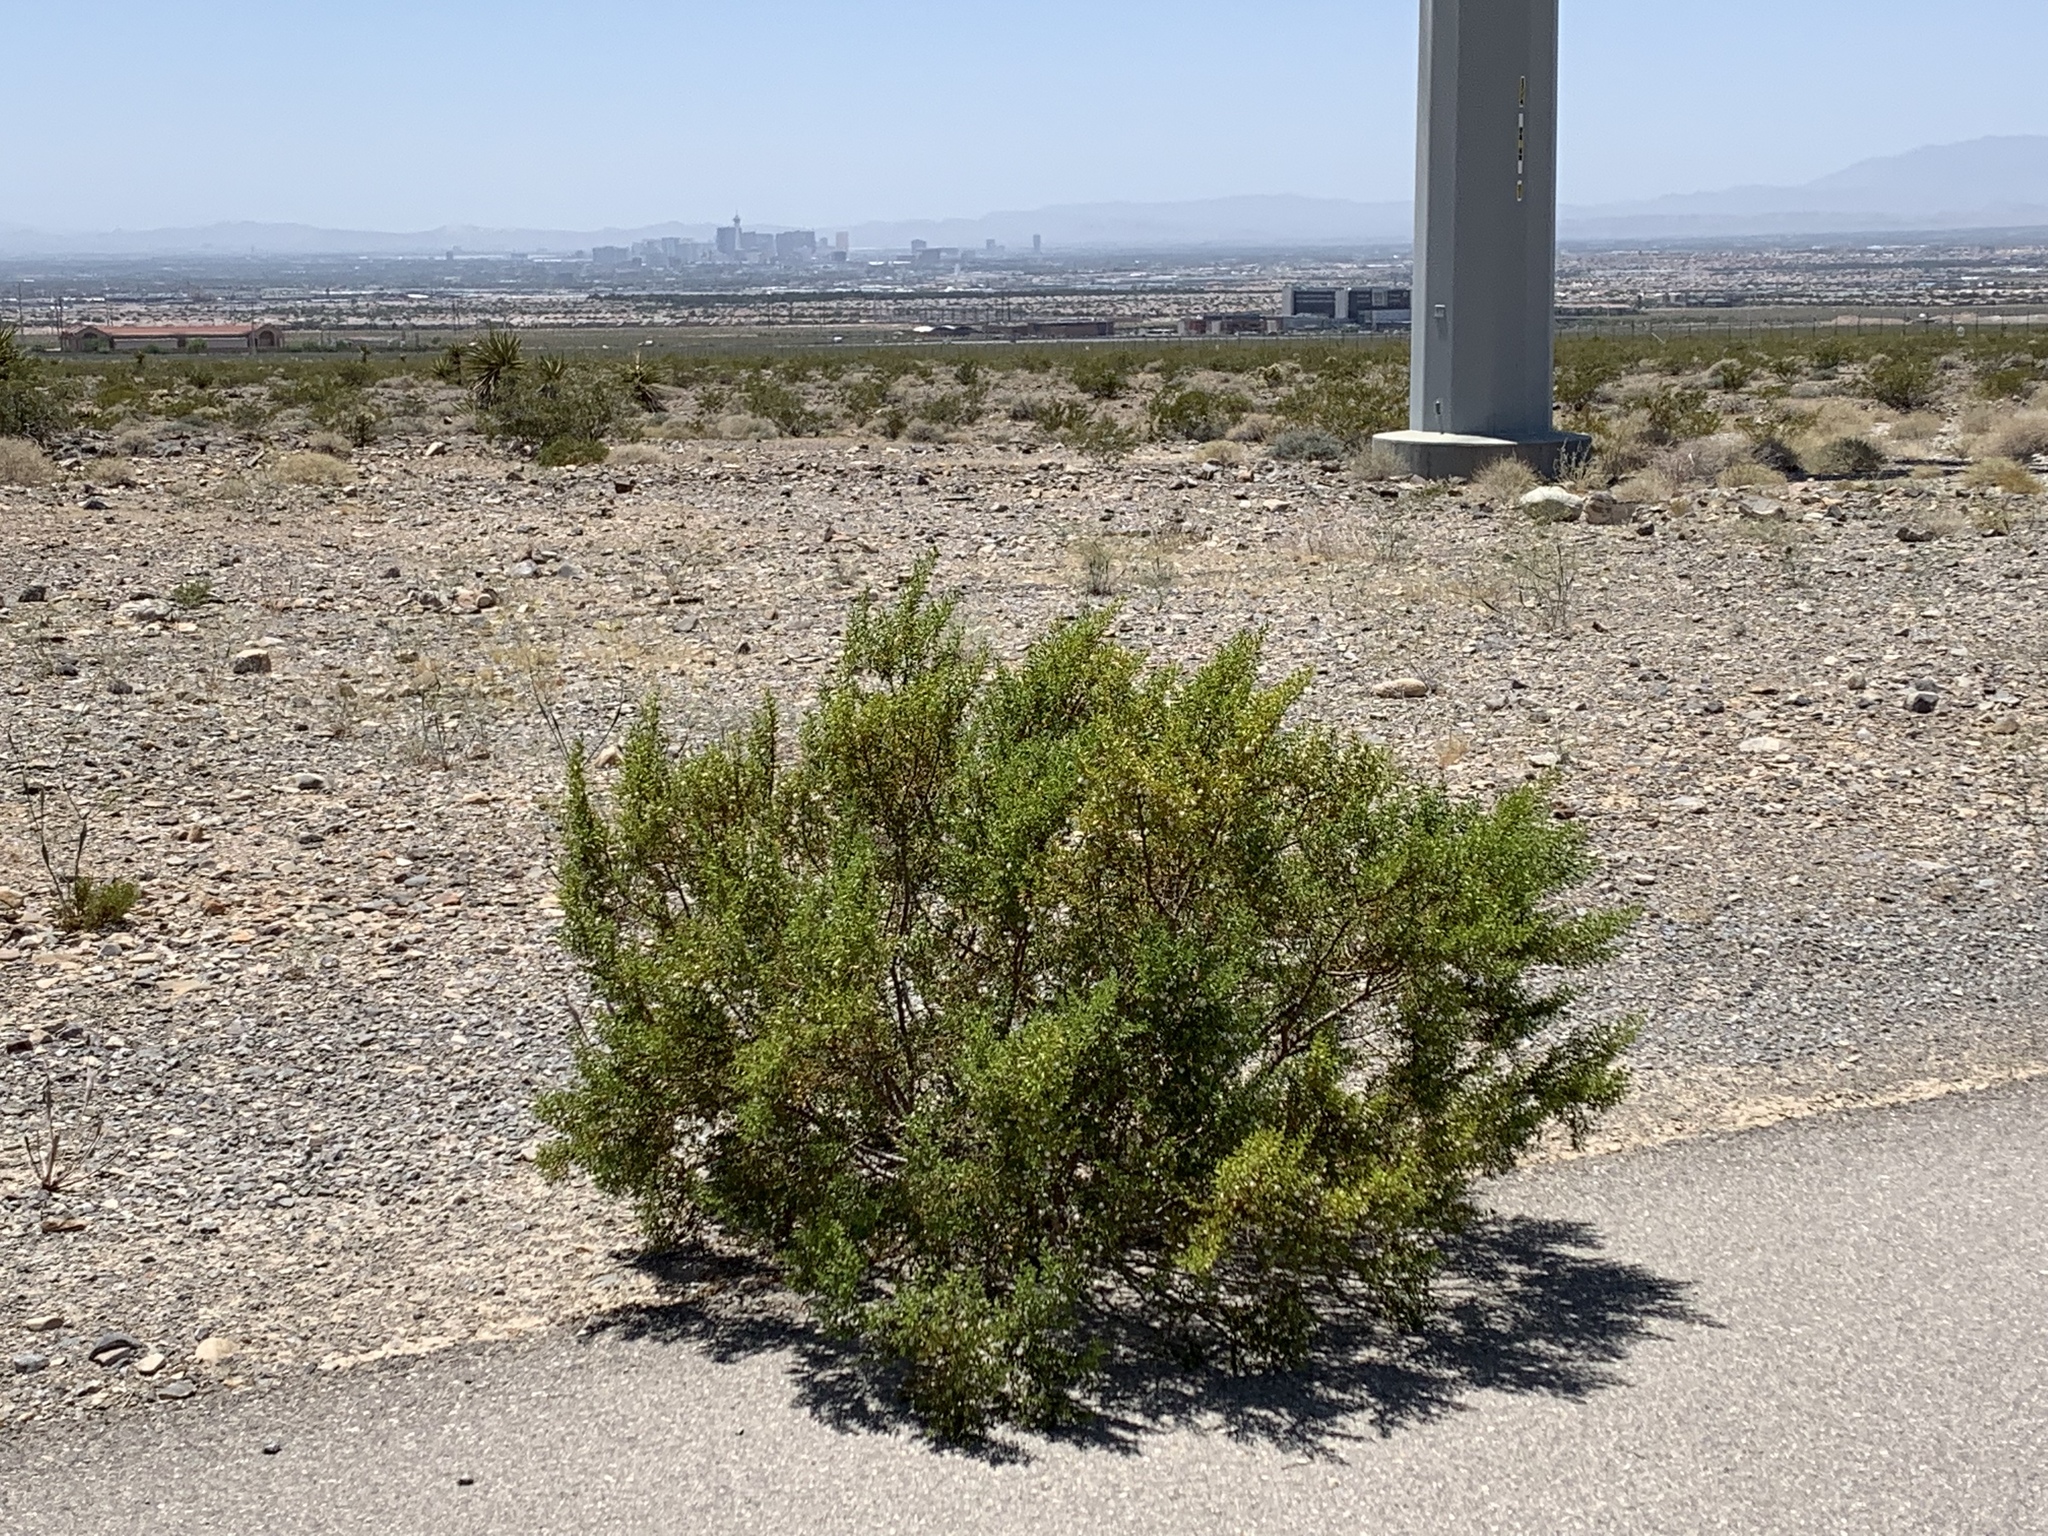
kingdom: Plantae
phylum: Tracheophyta
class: Magnoliopsida
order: Zygophyllales
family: Zygophyllaceae
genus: Larrea
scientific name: Larrea tridentata
